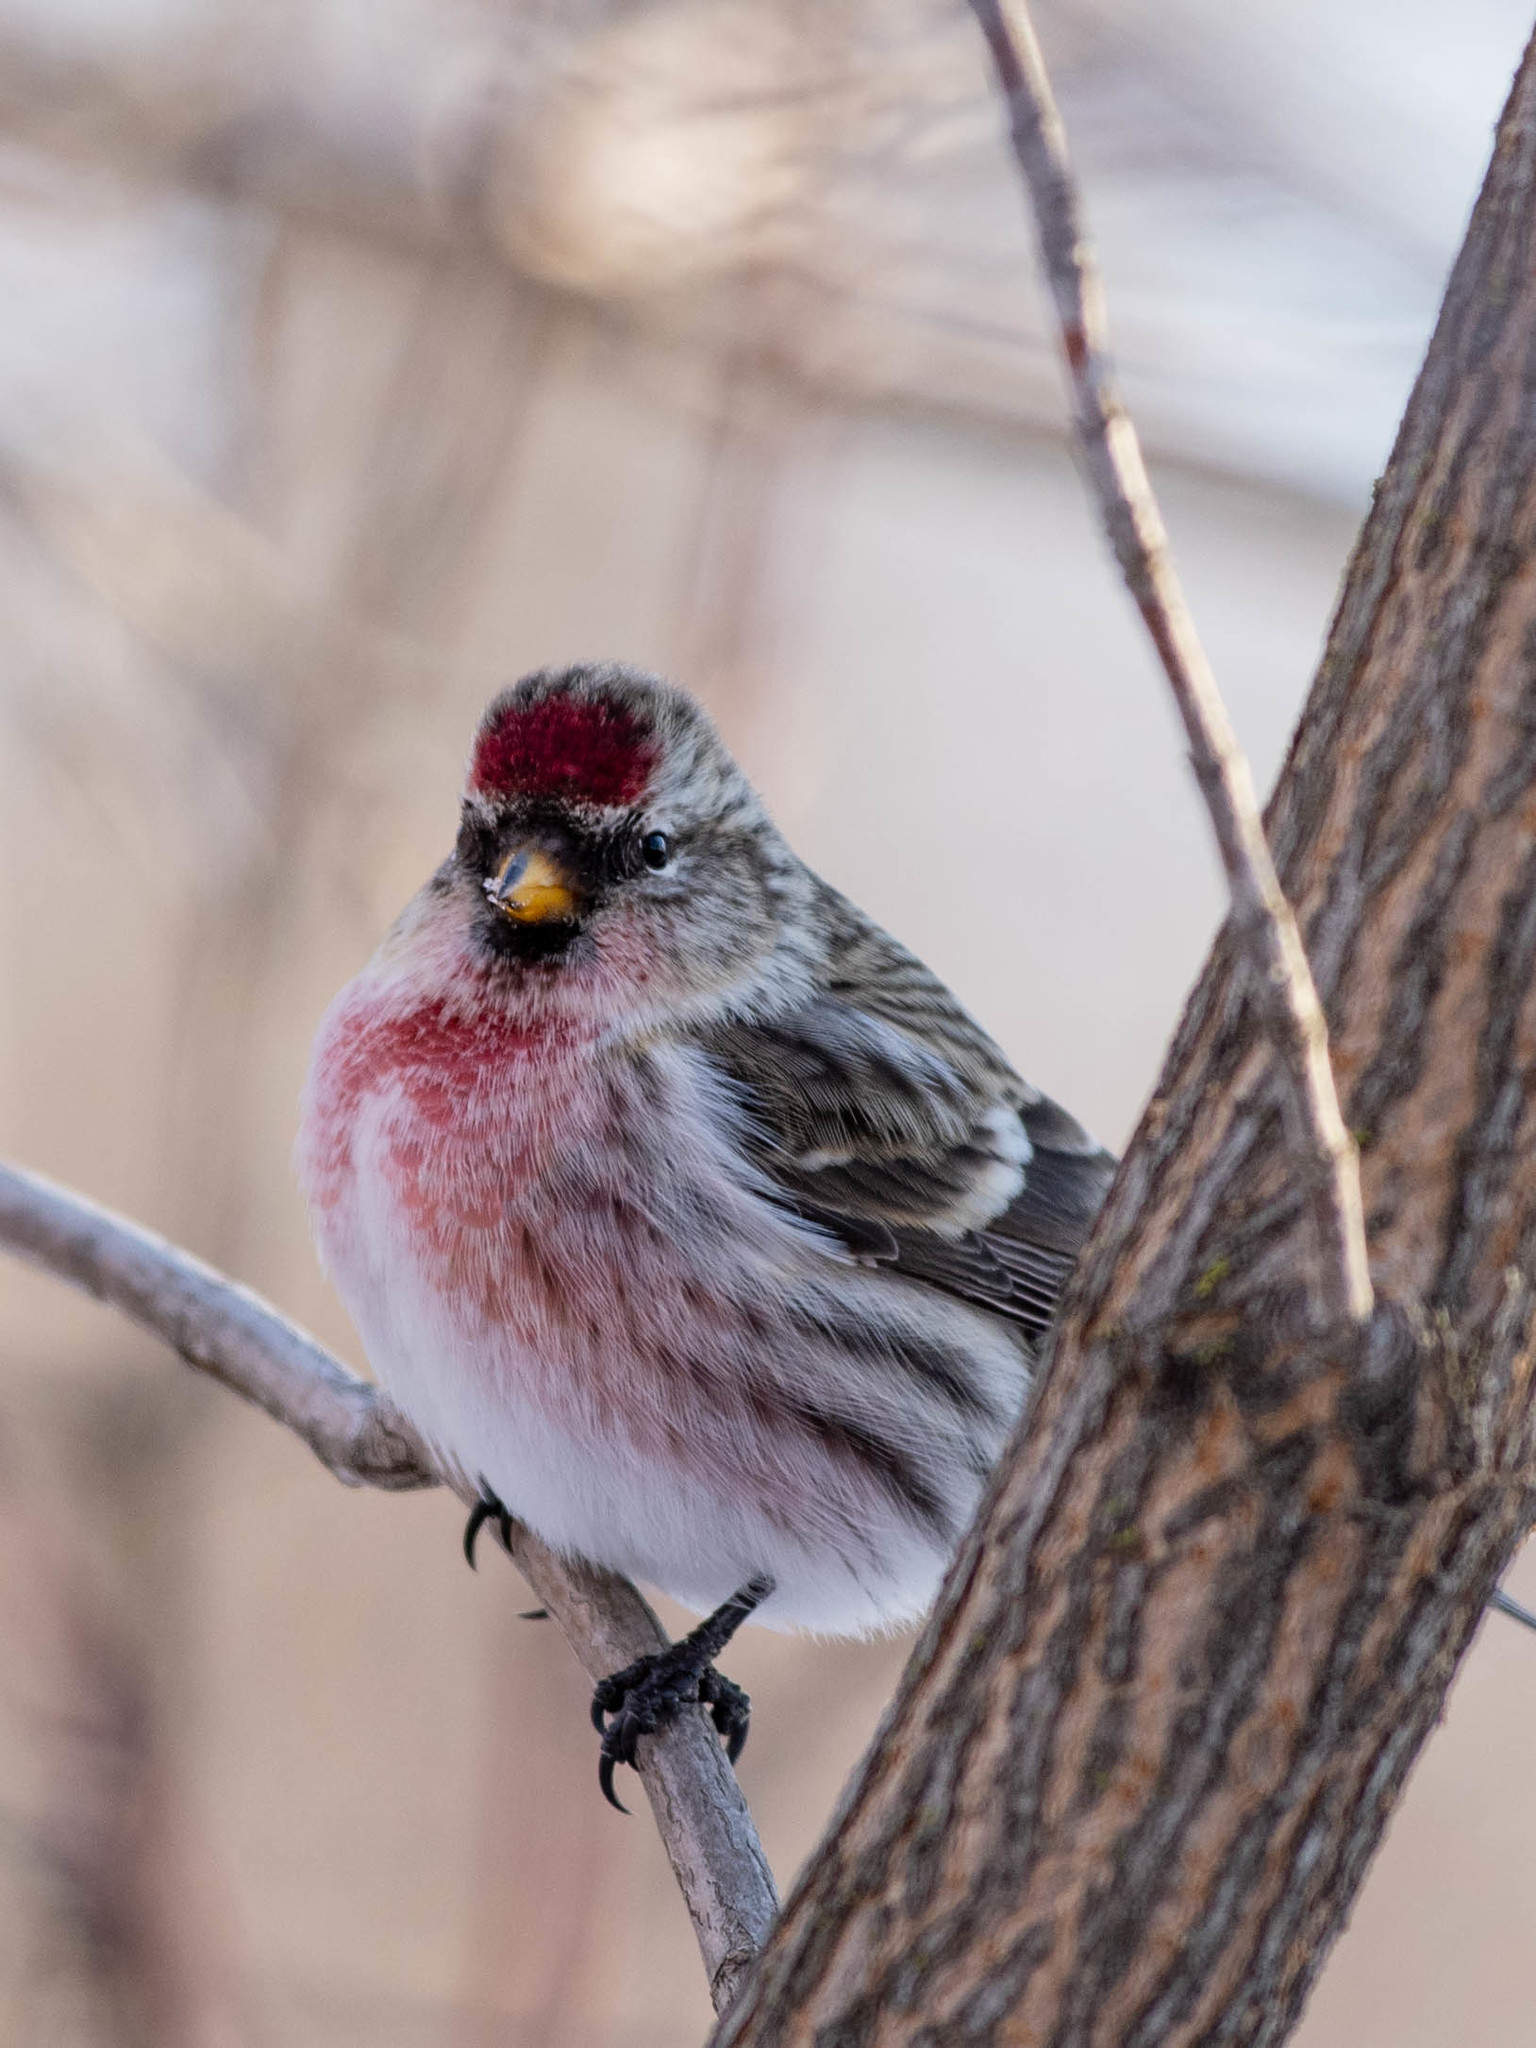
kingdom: Animalia
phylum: Chordata
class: Aves
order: Passeriformes
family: Fringillidae
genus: Acanthis
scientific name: Acanthis flammea
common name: Common redpoll
